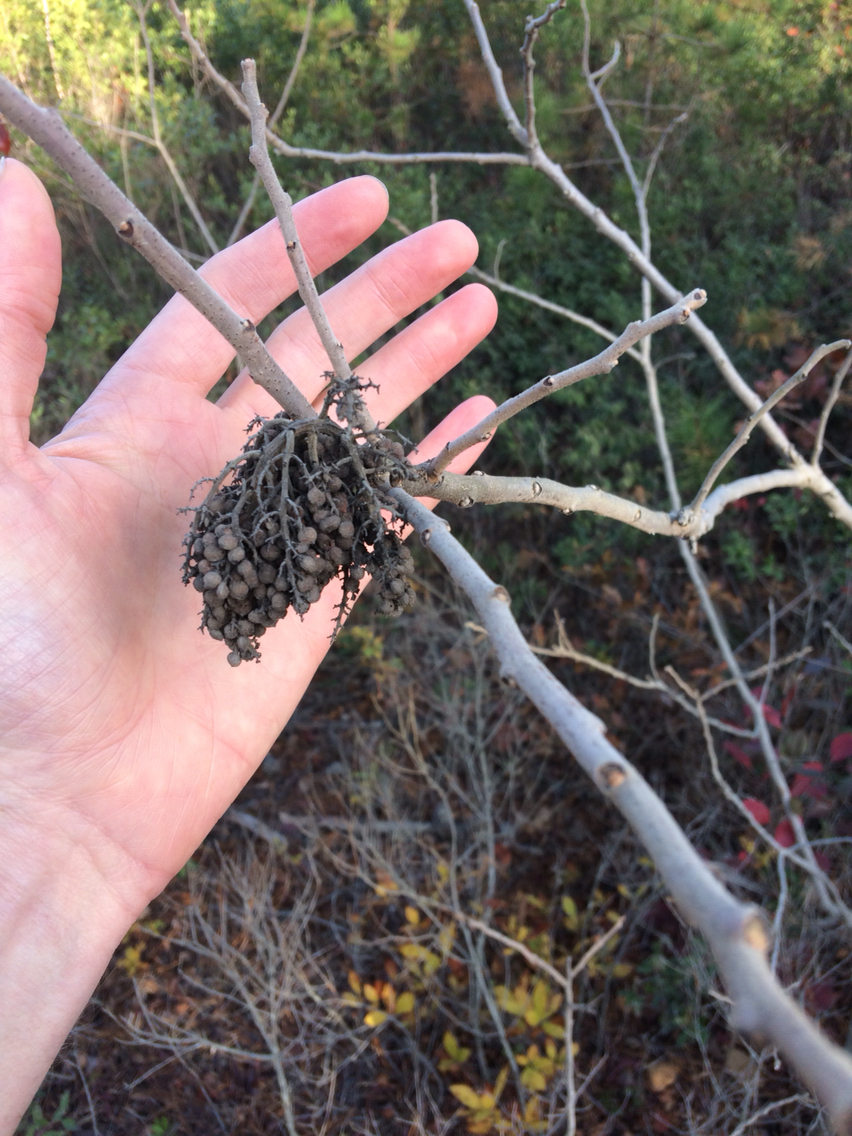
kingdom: Plantae
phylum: Tracheophyta
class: Magnoliopsida
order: Sapindales
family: Anacardiaceae
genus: Rhus
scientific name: Rhus copallina
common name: Shining sumac
